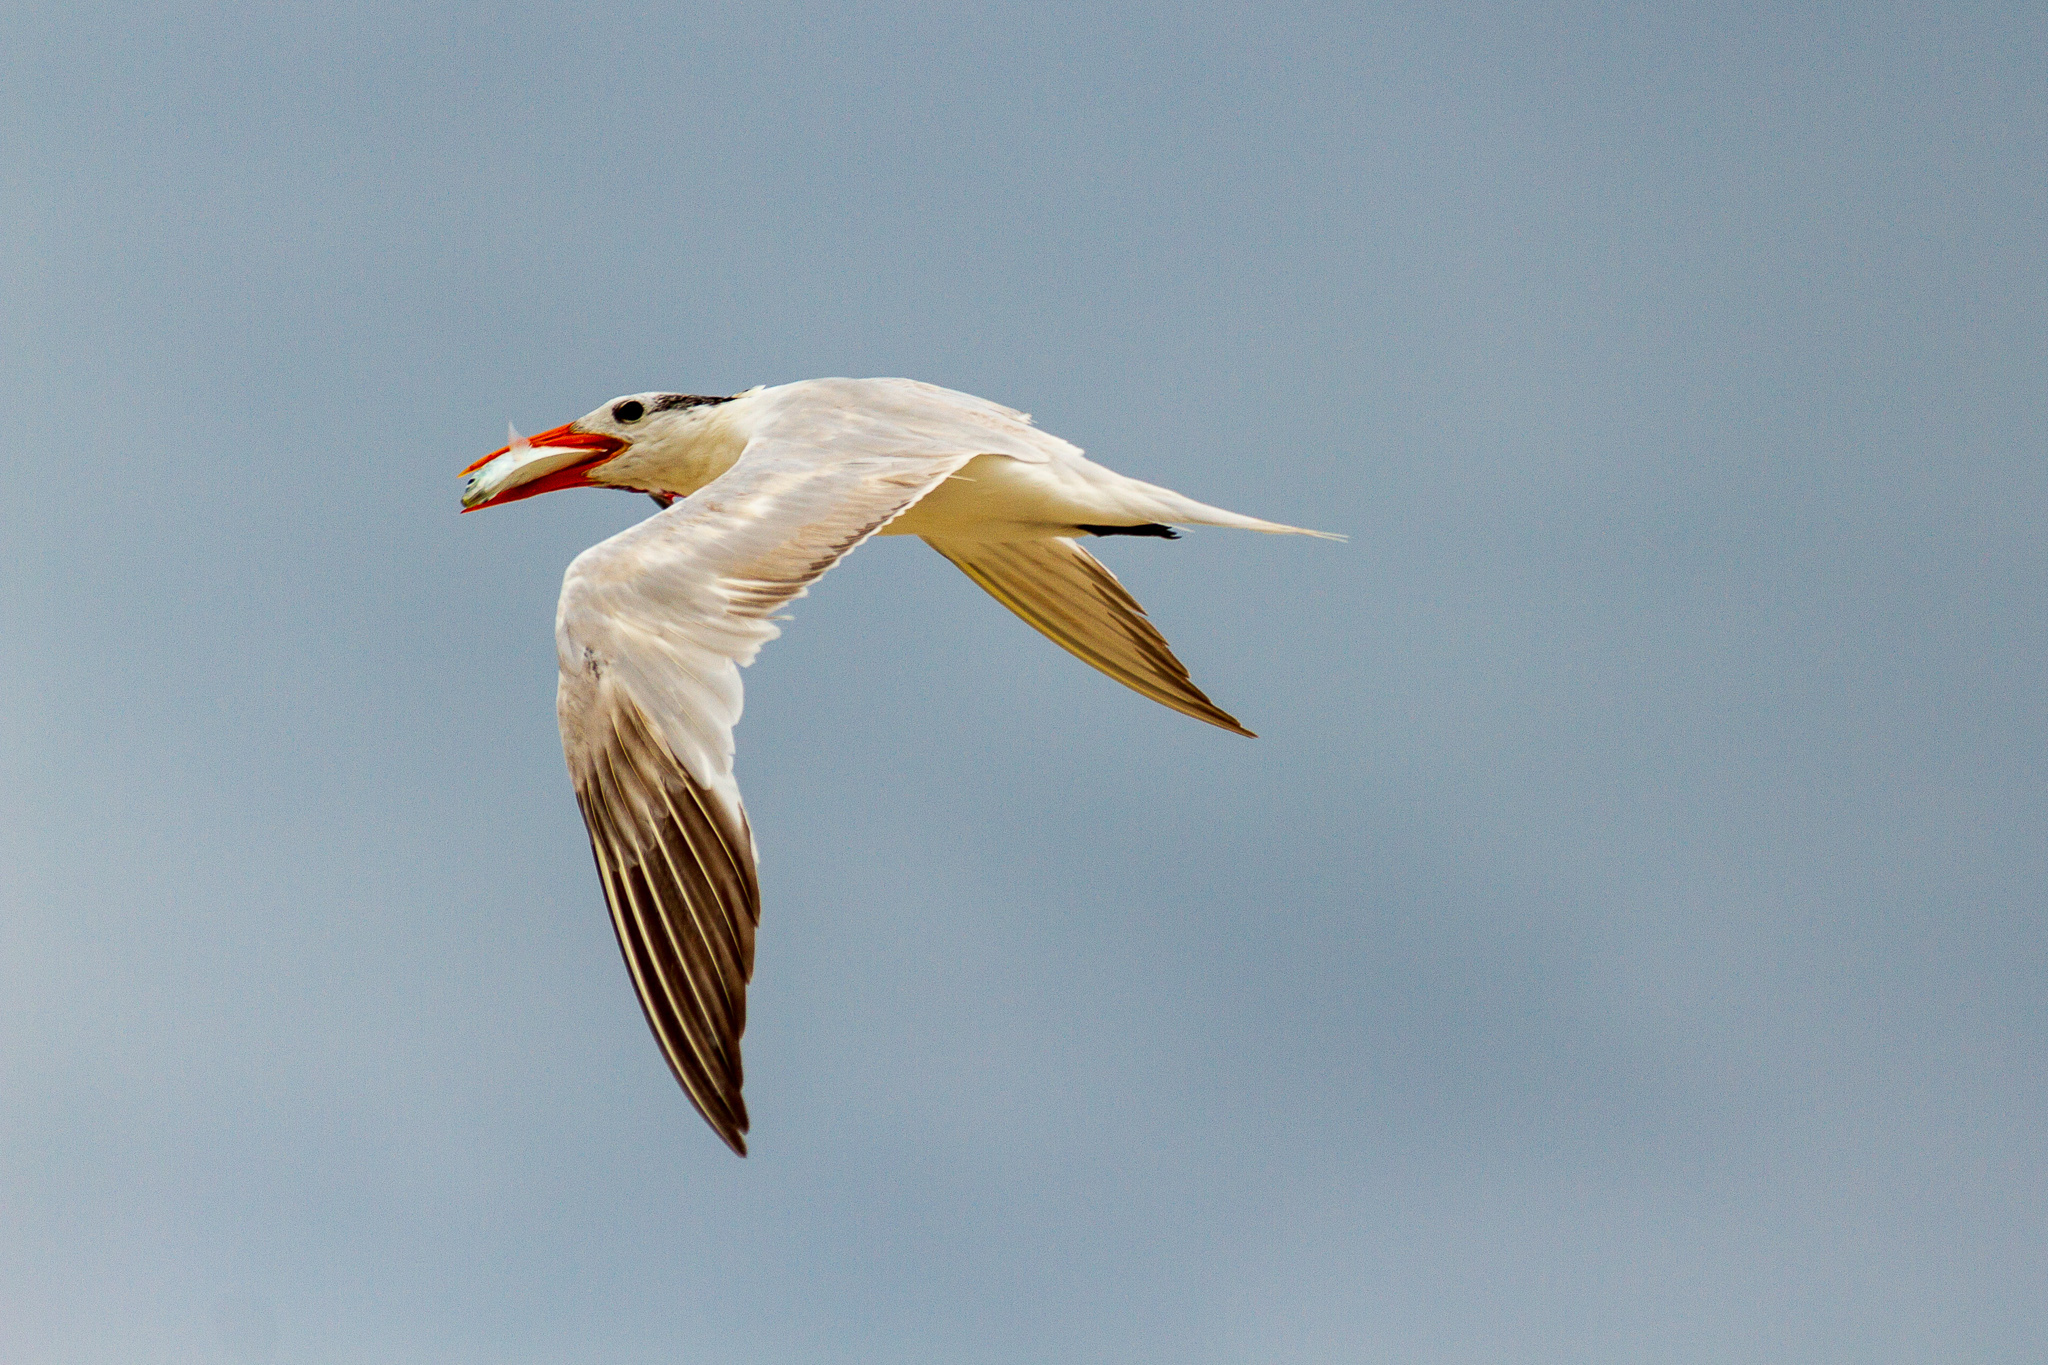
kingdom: Animalia
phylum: Chordata
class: Aves
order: Charadriiformes
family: Laridae
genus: Thalasseus
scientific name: Thalasseus maximus
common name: Royal tern
